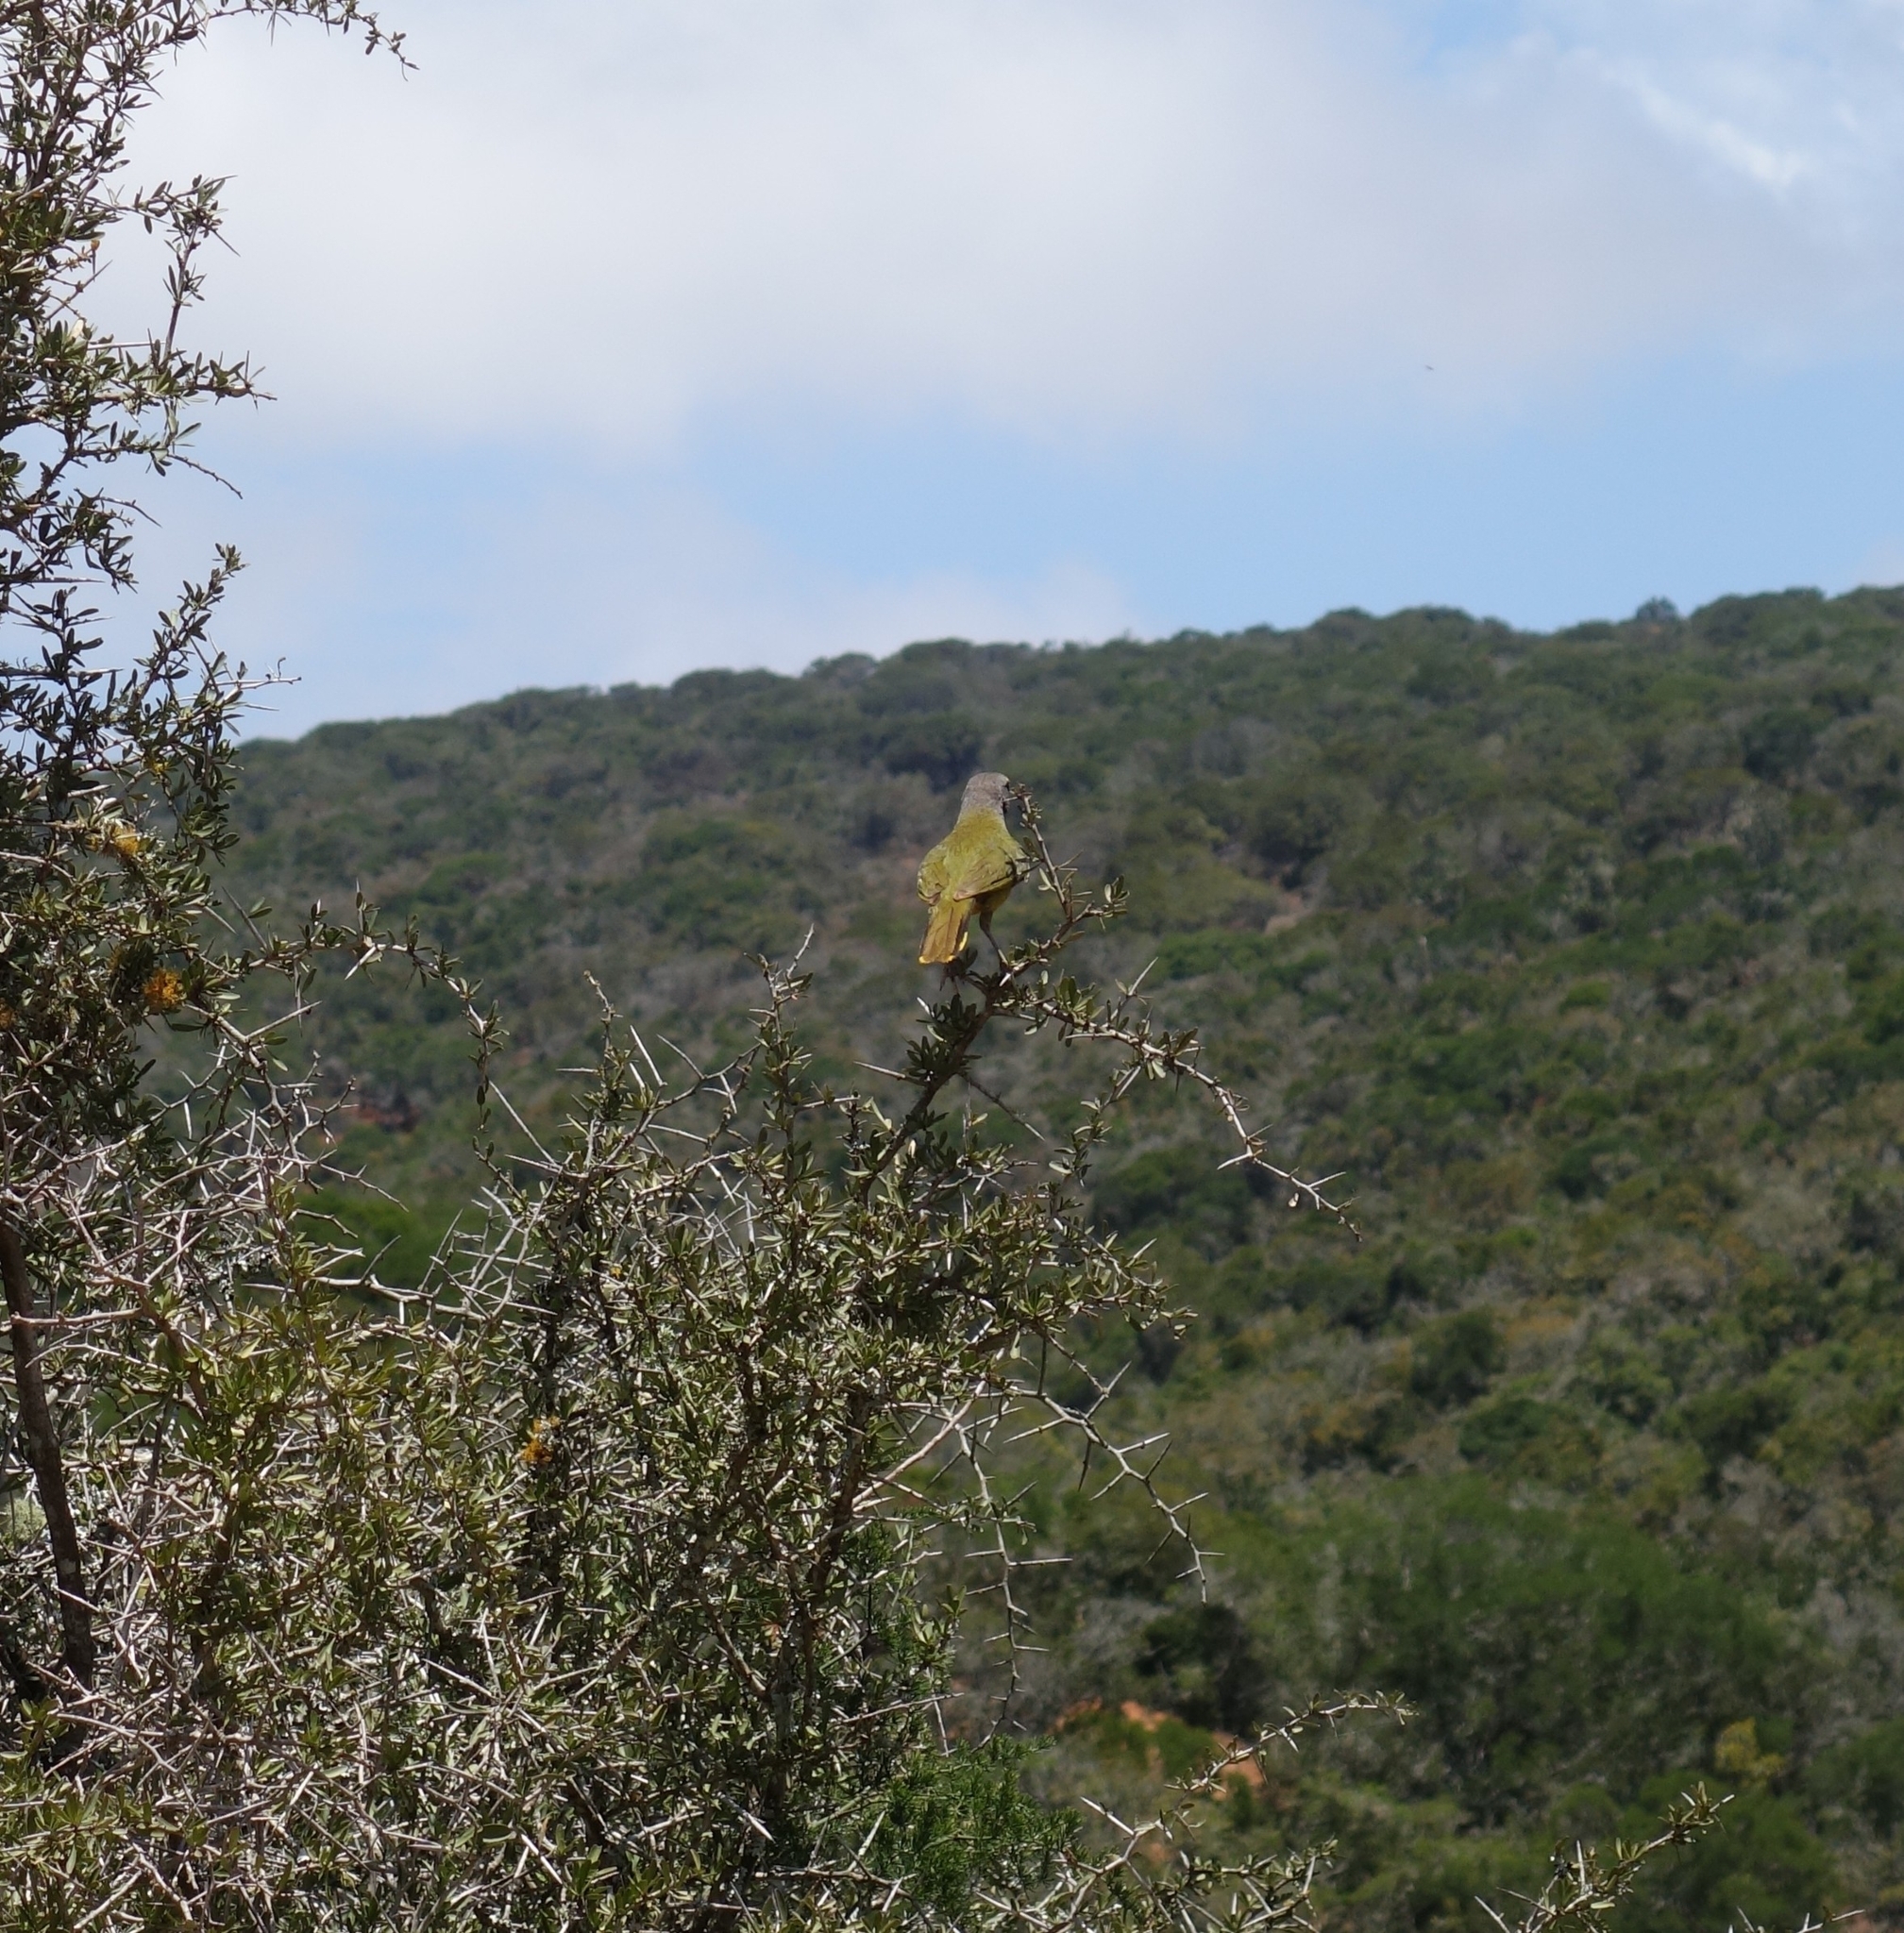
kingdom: Animalia
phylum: Chordata
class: Aves
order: Passeriformes
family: Malaconotidae
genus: Telophorus
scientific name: Telophorus zeylonus
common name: Bokmakierie
